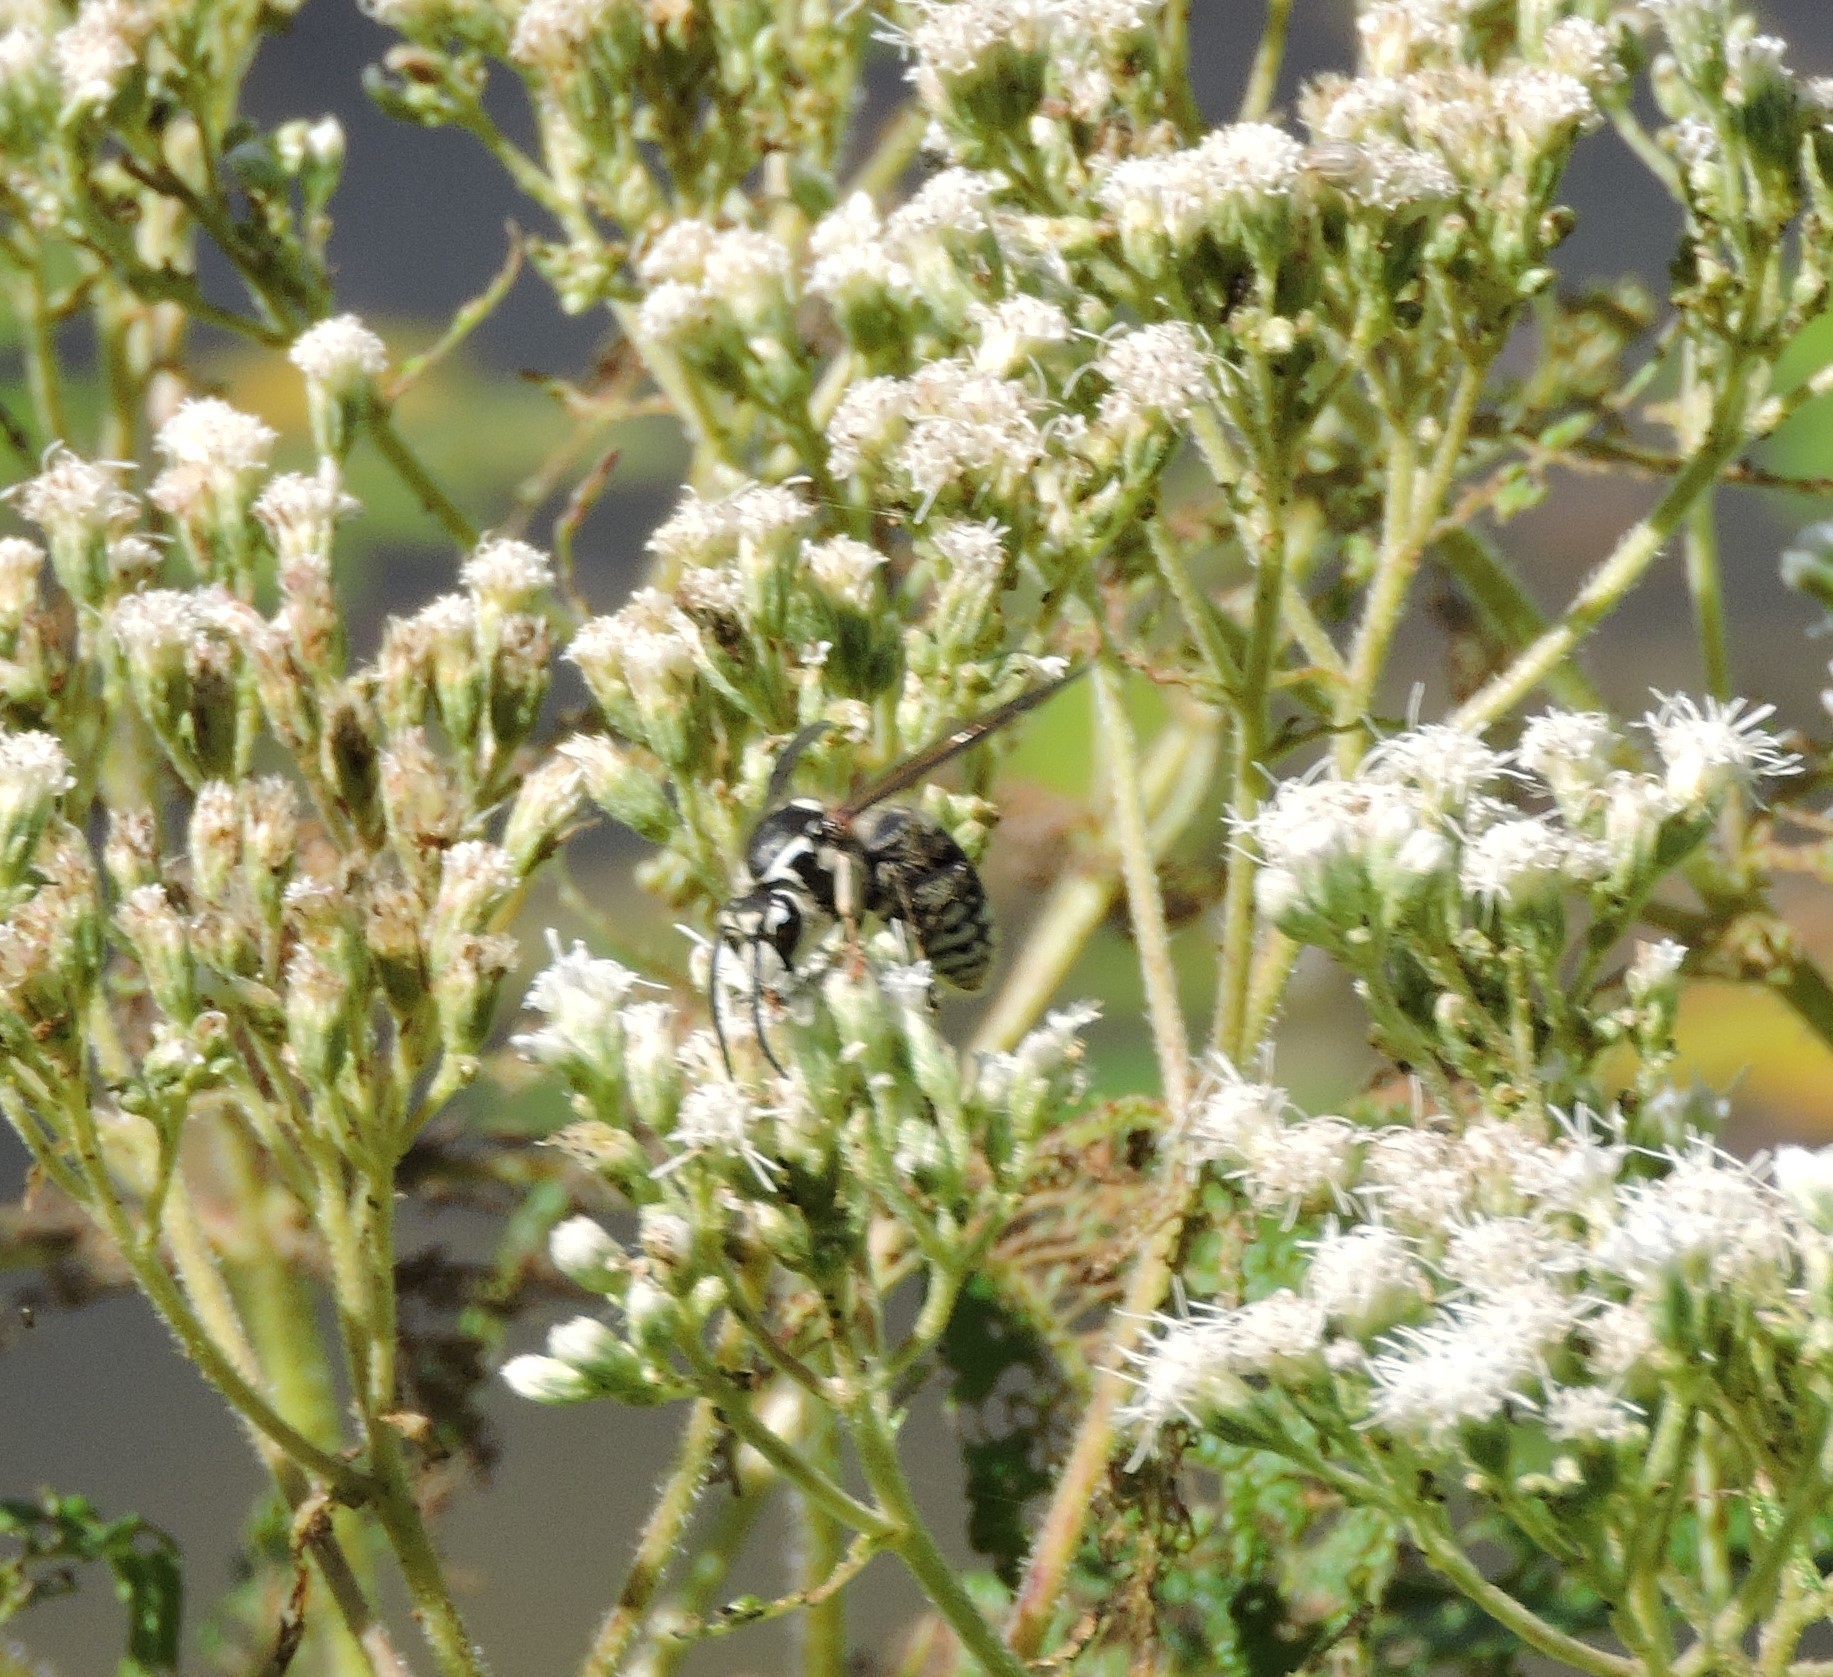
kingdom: Animalia
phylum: Arthropoda
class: Insecta
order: Hymenoptera
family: Vespidae
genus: Dolichovespula
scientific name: Dolichovespula maculata
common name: Bald-faced hornet
